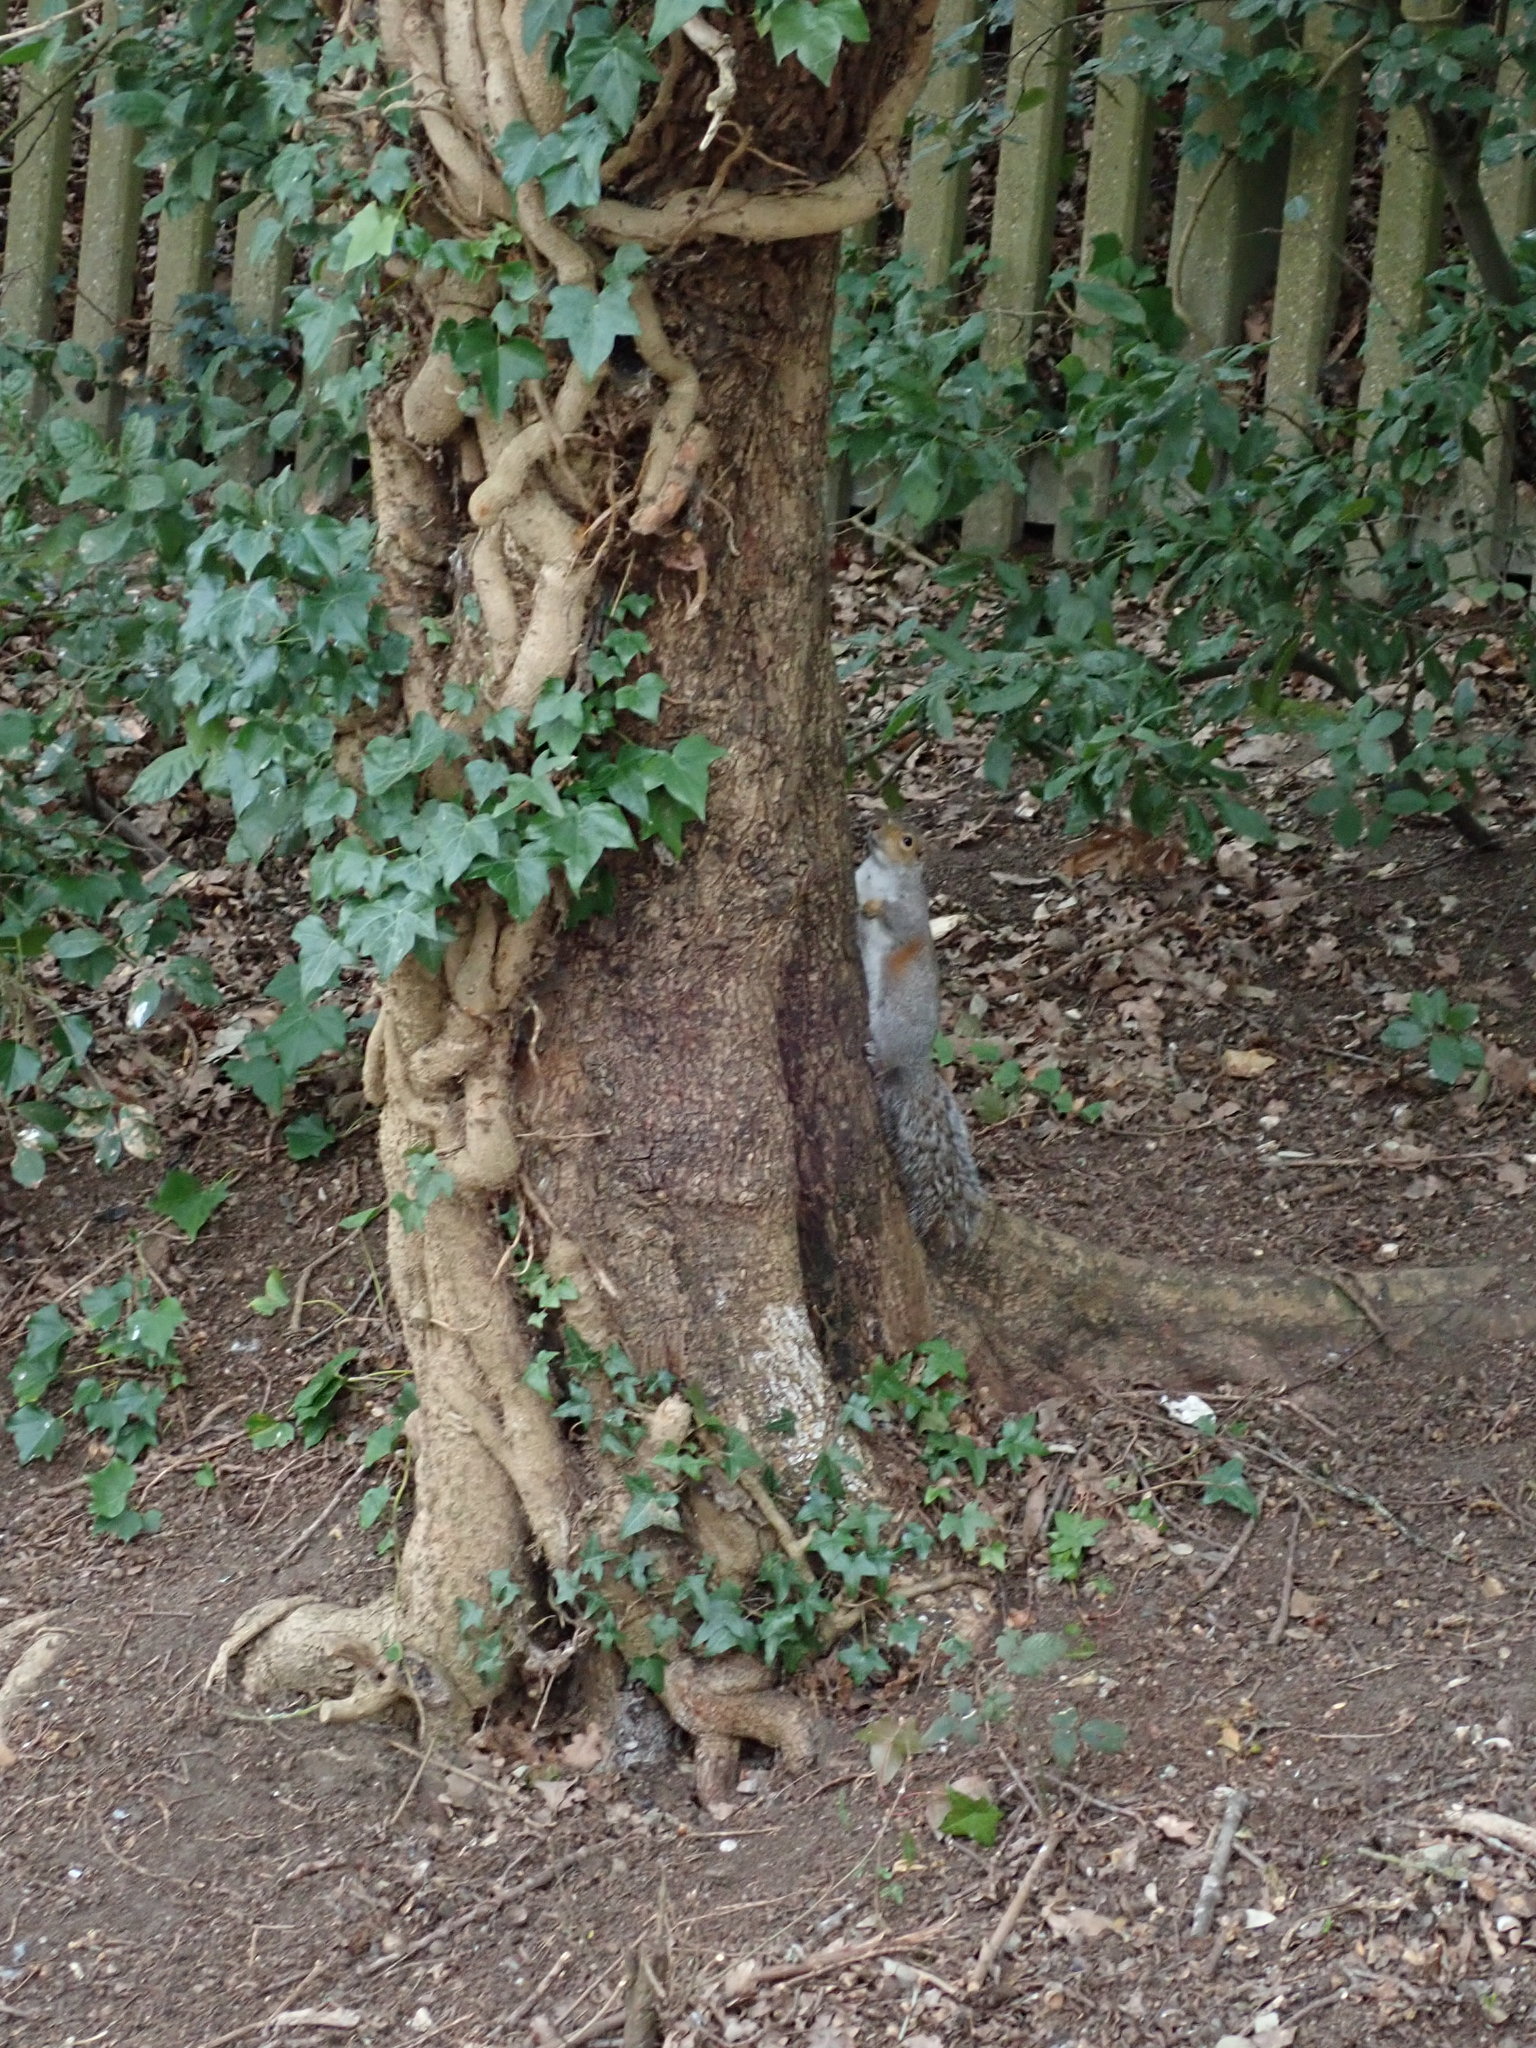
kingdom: Animalia
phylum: Chordata
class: Mammalia
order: Rodentia
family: Sciuridae
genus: Sciurus
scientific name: Sciurus carolinensis
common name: Eastern gray squirrel
